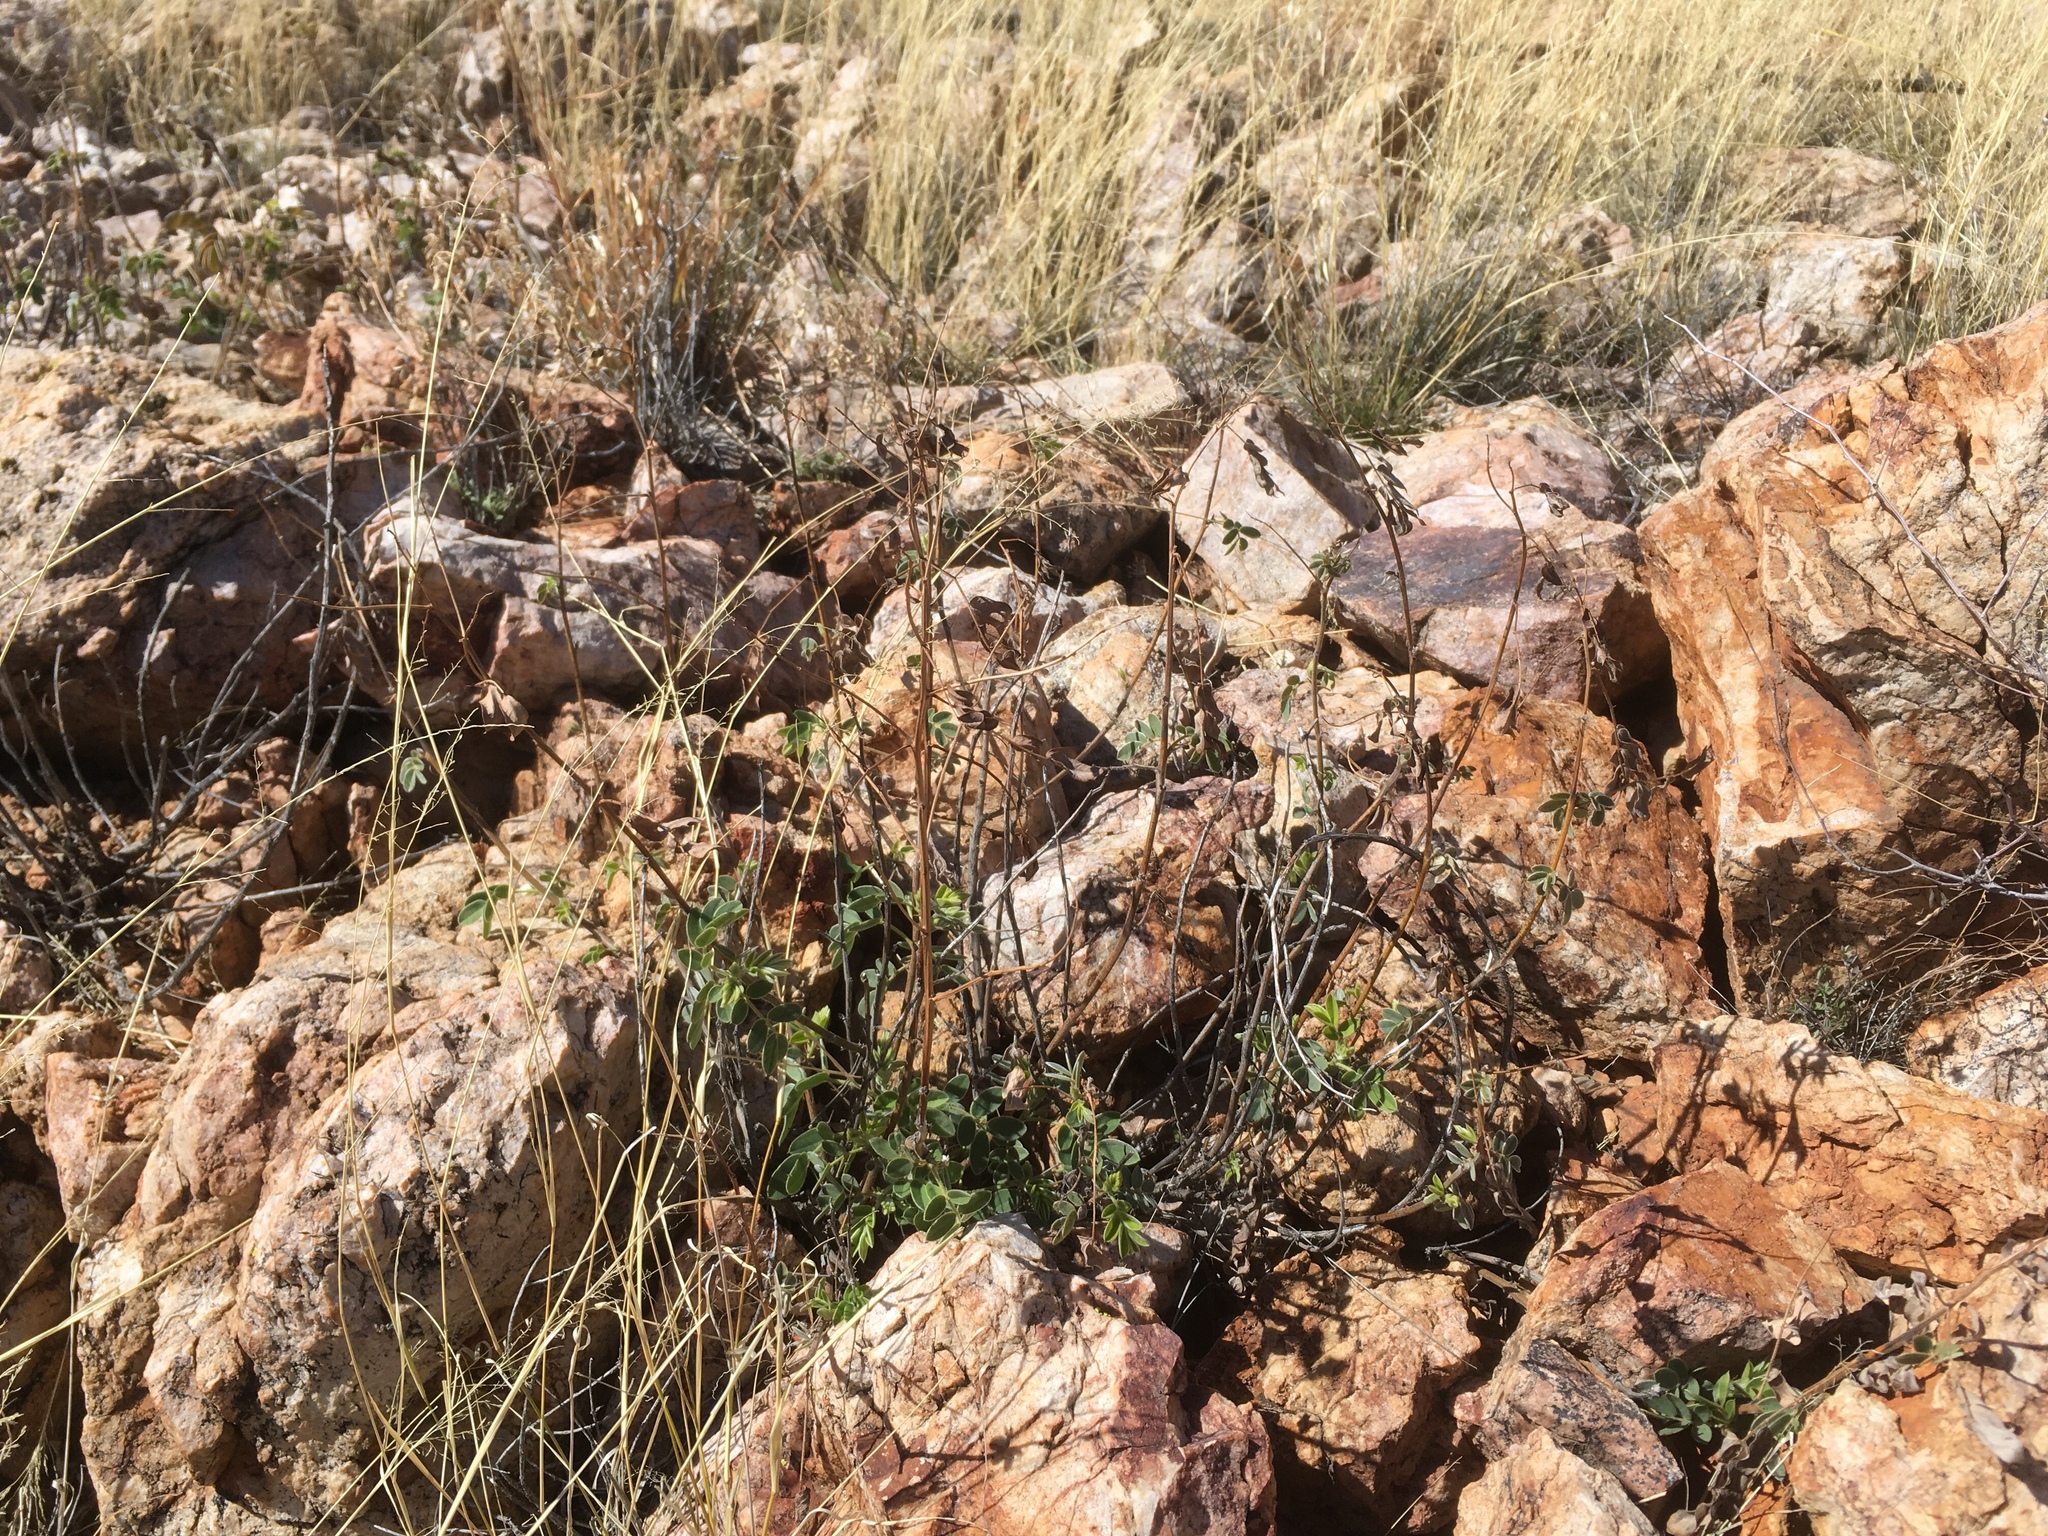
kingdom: Plantae
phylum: Tracheophyta
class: Magnoliopsida
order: Fabales
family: Fabaceae
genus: Senna
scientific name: Senna covesii
